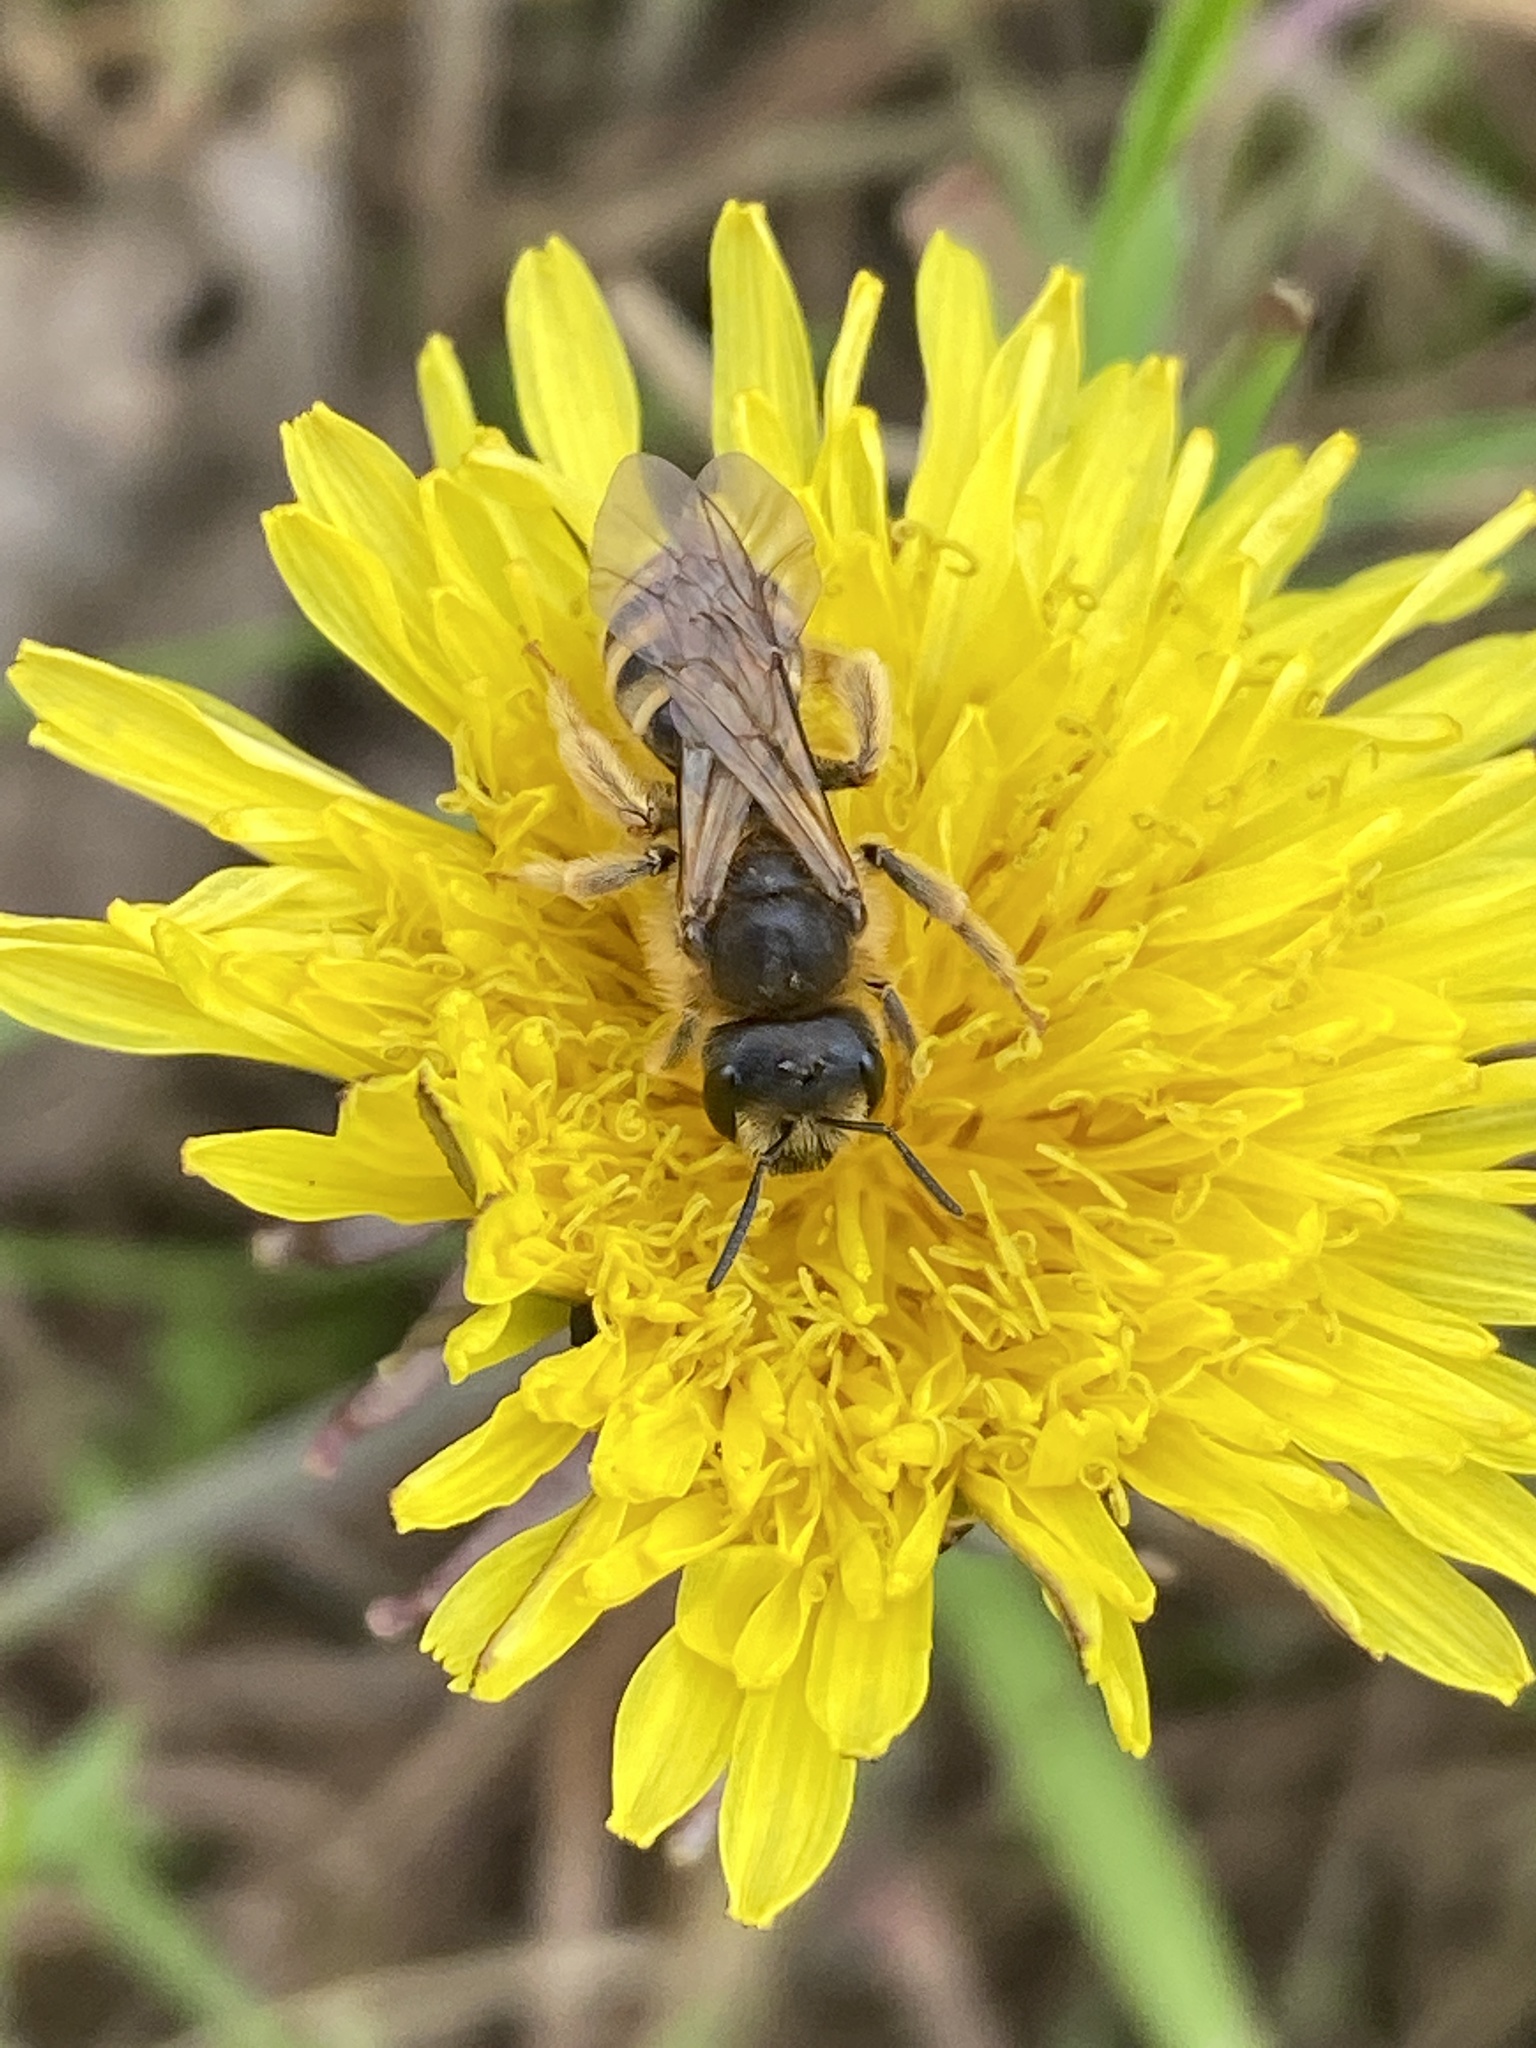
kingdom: Animalia
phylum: Arthropoda
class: Insecta
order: Hymenoptera
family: Halictidae
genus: Halictus
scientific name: Halictus scabiosae
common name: Great banded furrow bee
